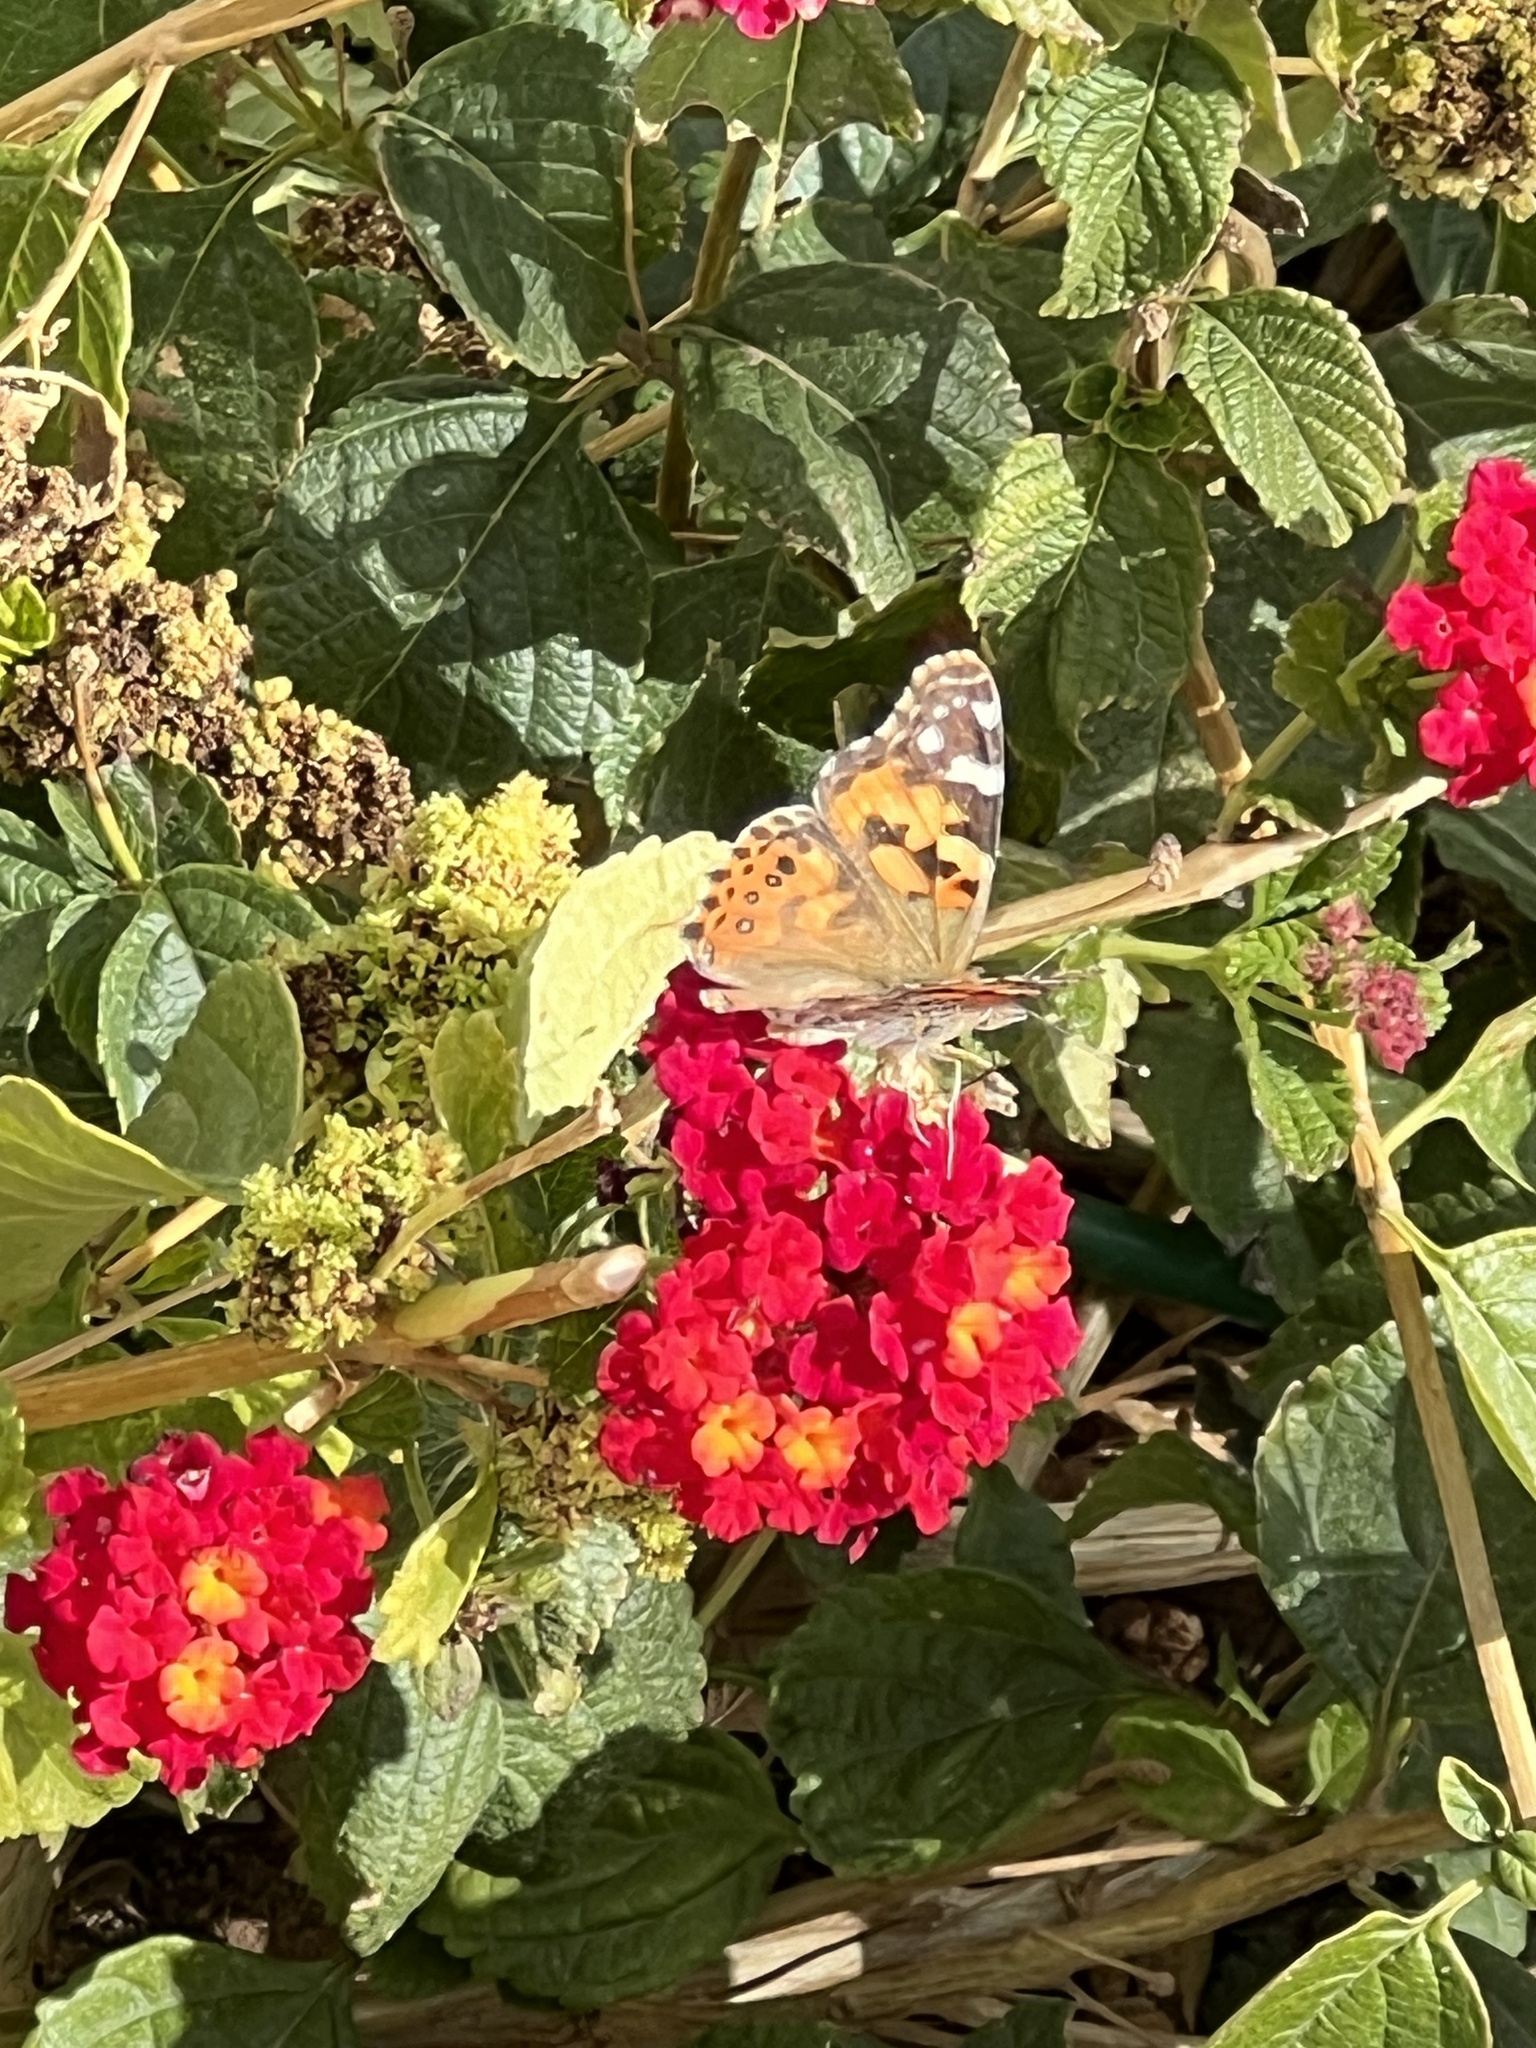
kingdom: Animalia
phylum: Arthropoda
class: Insecta
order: Lepidoptera
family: Nymphalidae
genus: Vanessa
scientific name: Vanessa cardui
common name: Painted lady
